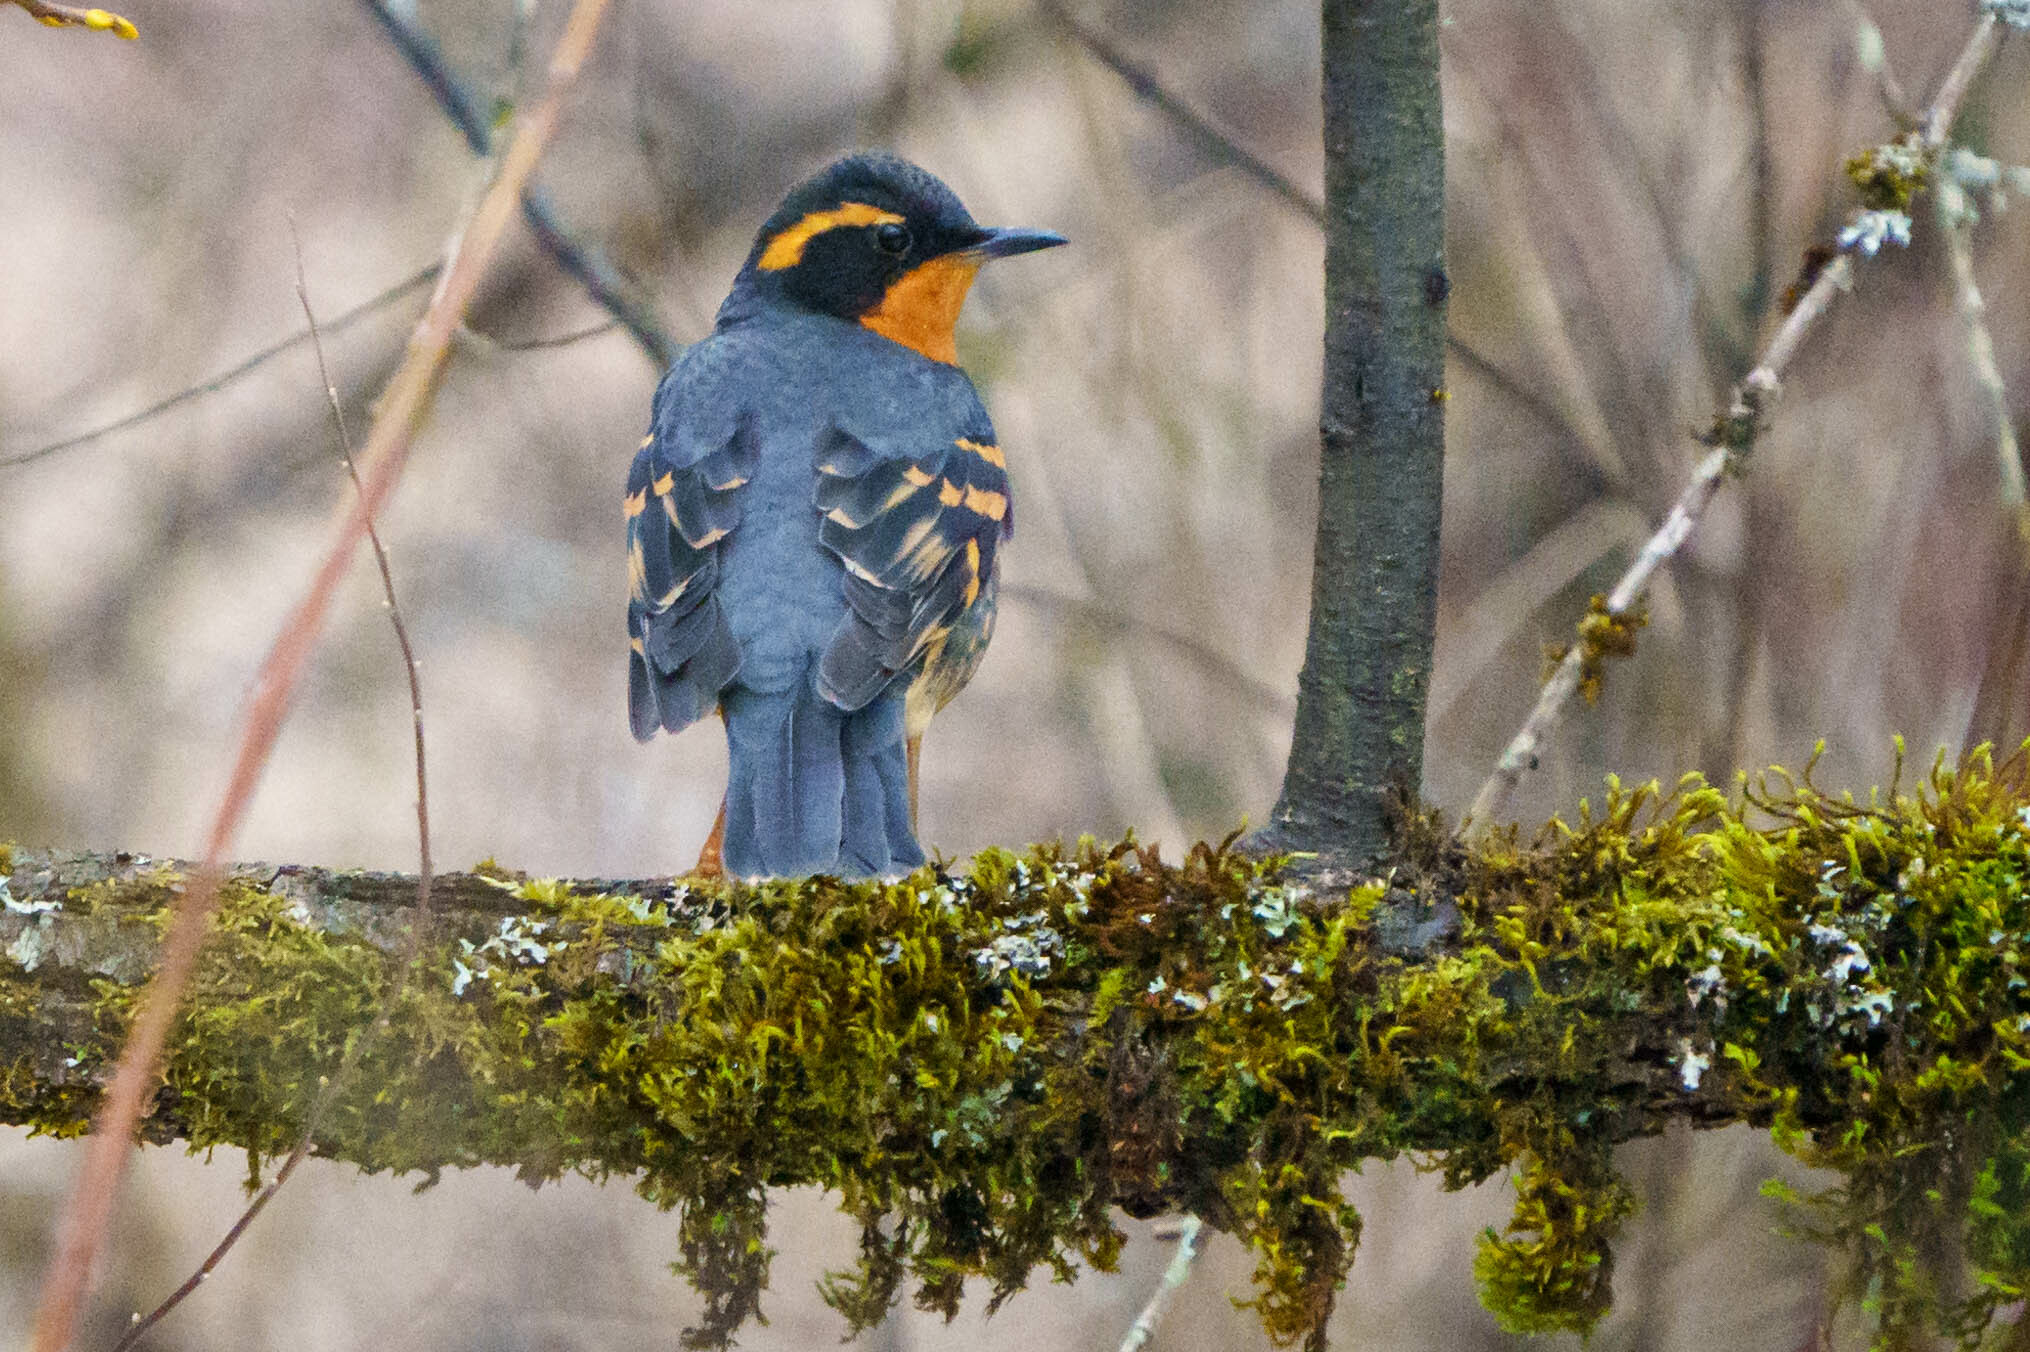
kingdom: Animalia
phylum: Chordata
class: Aves
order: Passeriformes
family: Turdidae
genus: Ixoreus
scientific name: Ixoreus naevius
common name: Varied thrush
